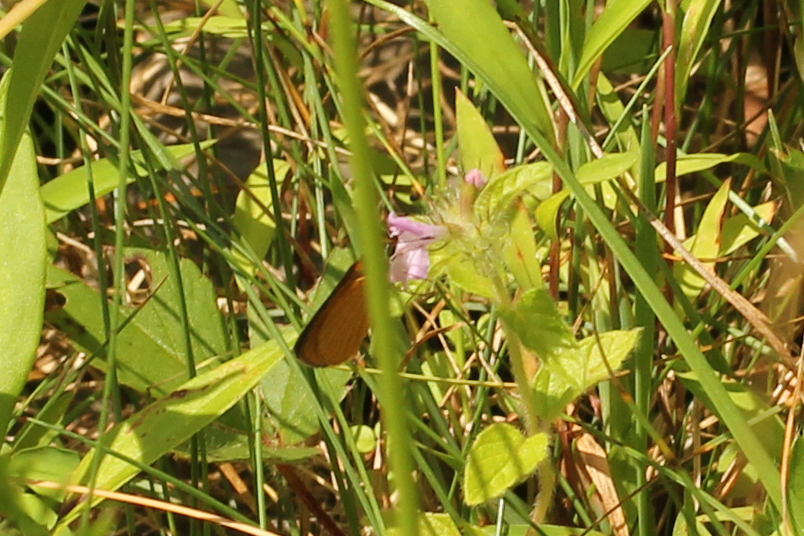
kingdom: Animalia
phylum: Arthropoda
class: Insecta
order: Lepidoptera
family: Hesperiidae
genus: Ancyloxypha
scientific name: Ancyloxypha numitor
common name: Least skipper
